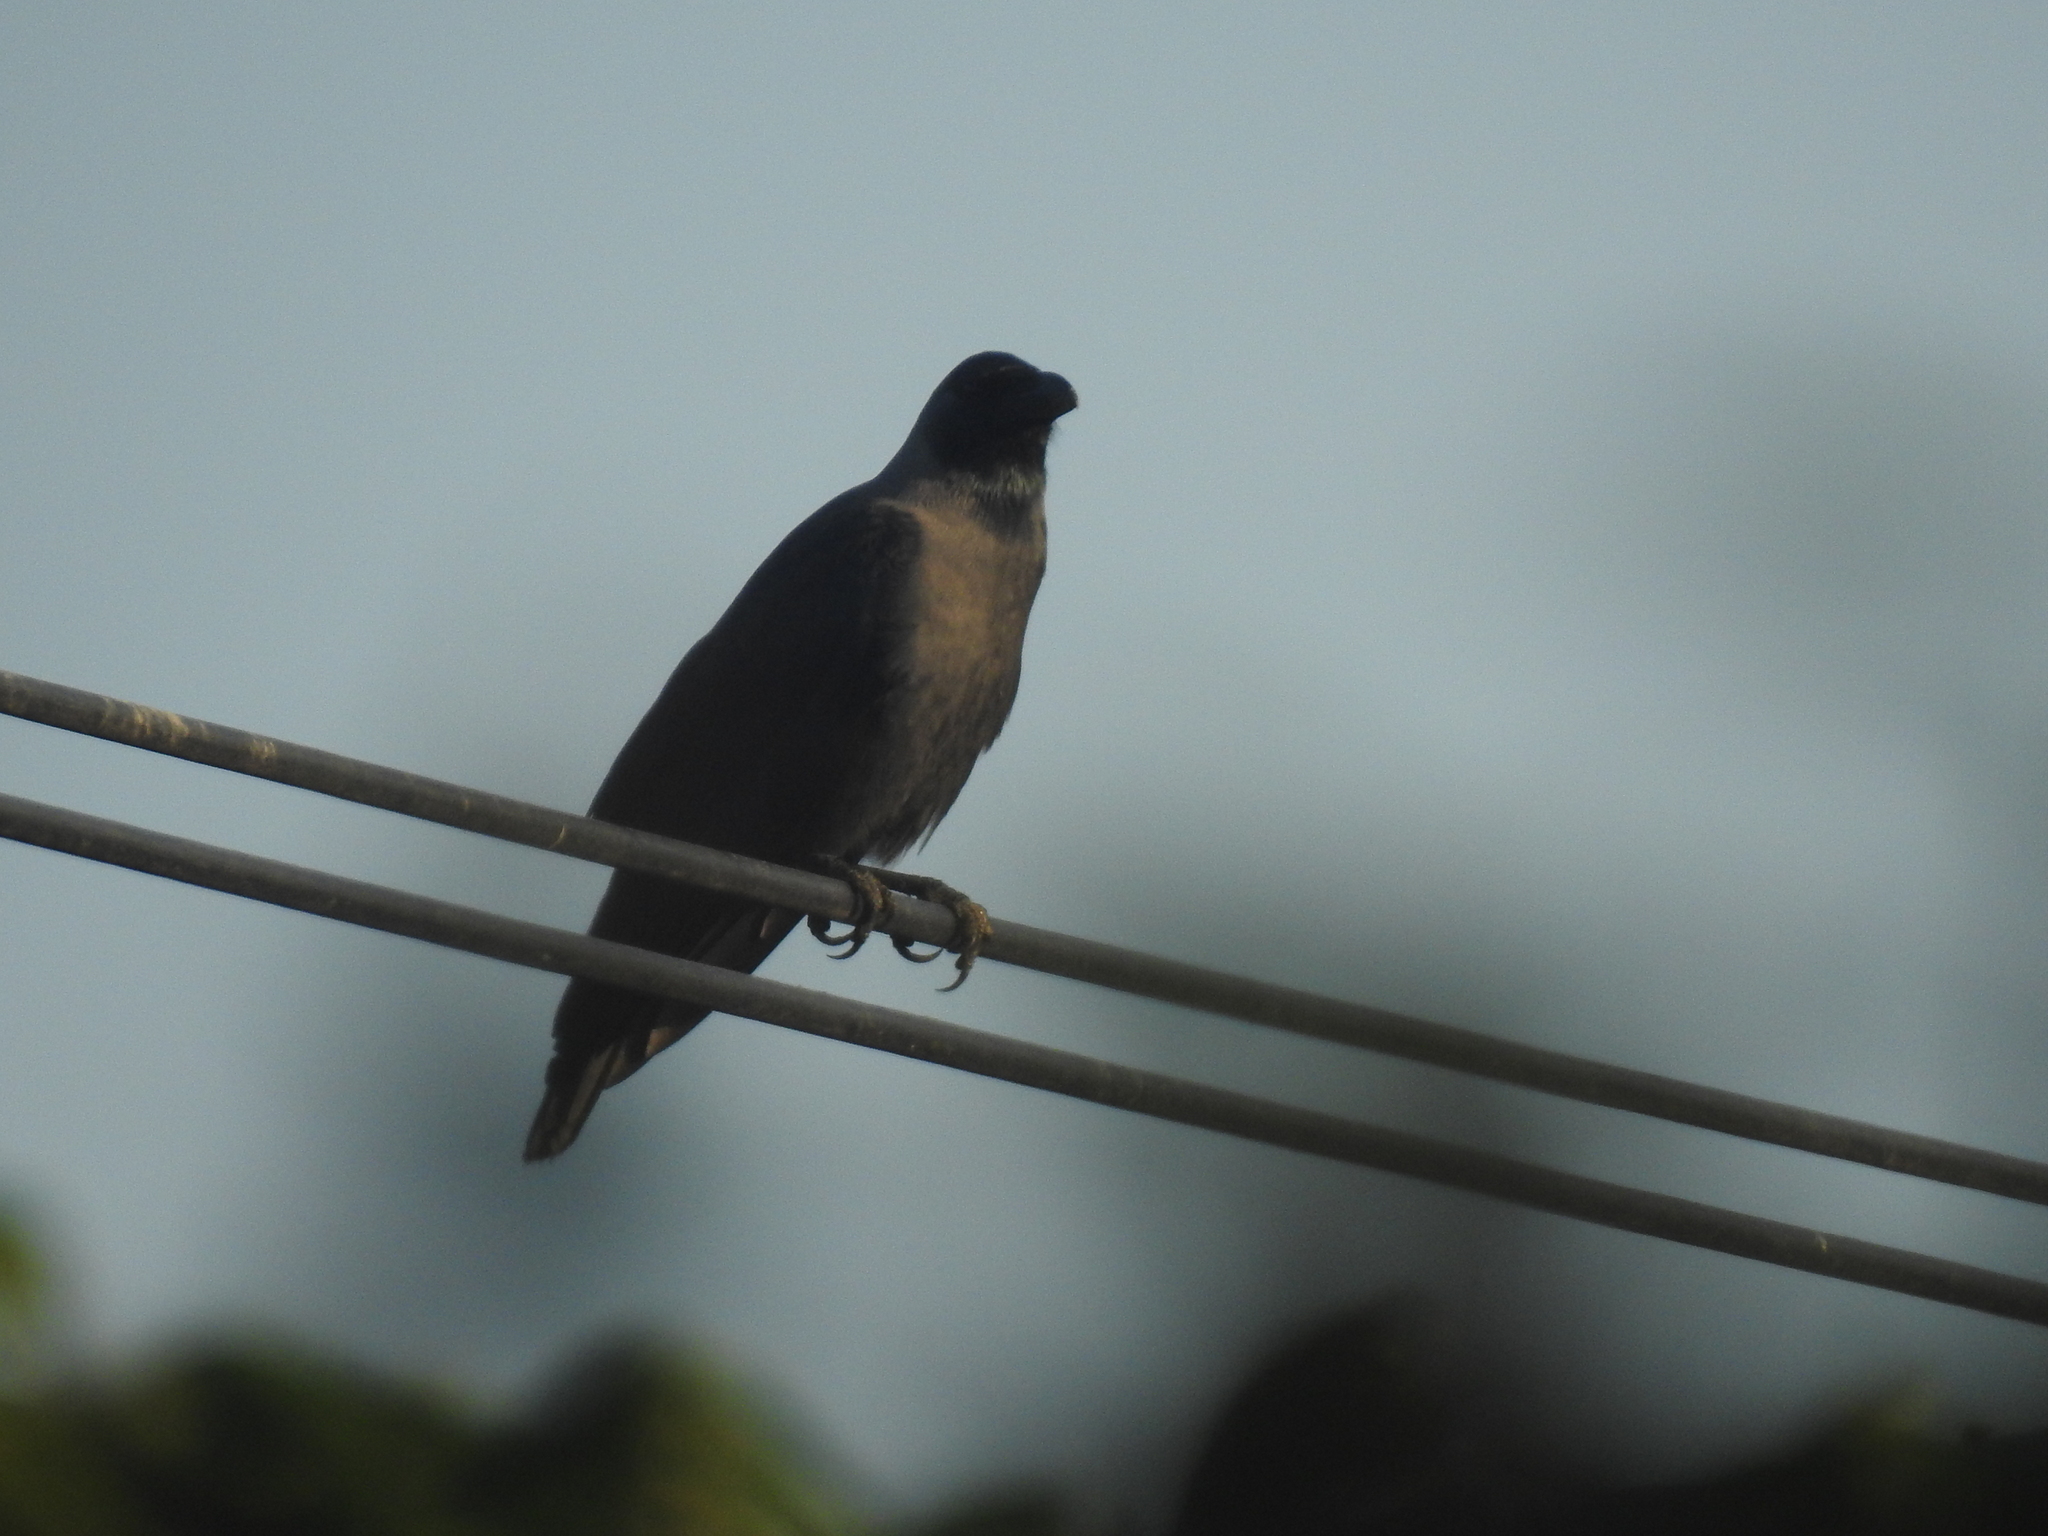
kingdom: Animalia
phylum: Chordata
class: Aves
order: Passeriformes
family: Corvidae
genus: Corvus
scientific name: Corvus splendens
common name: House crow
